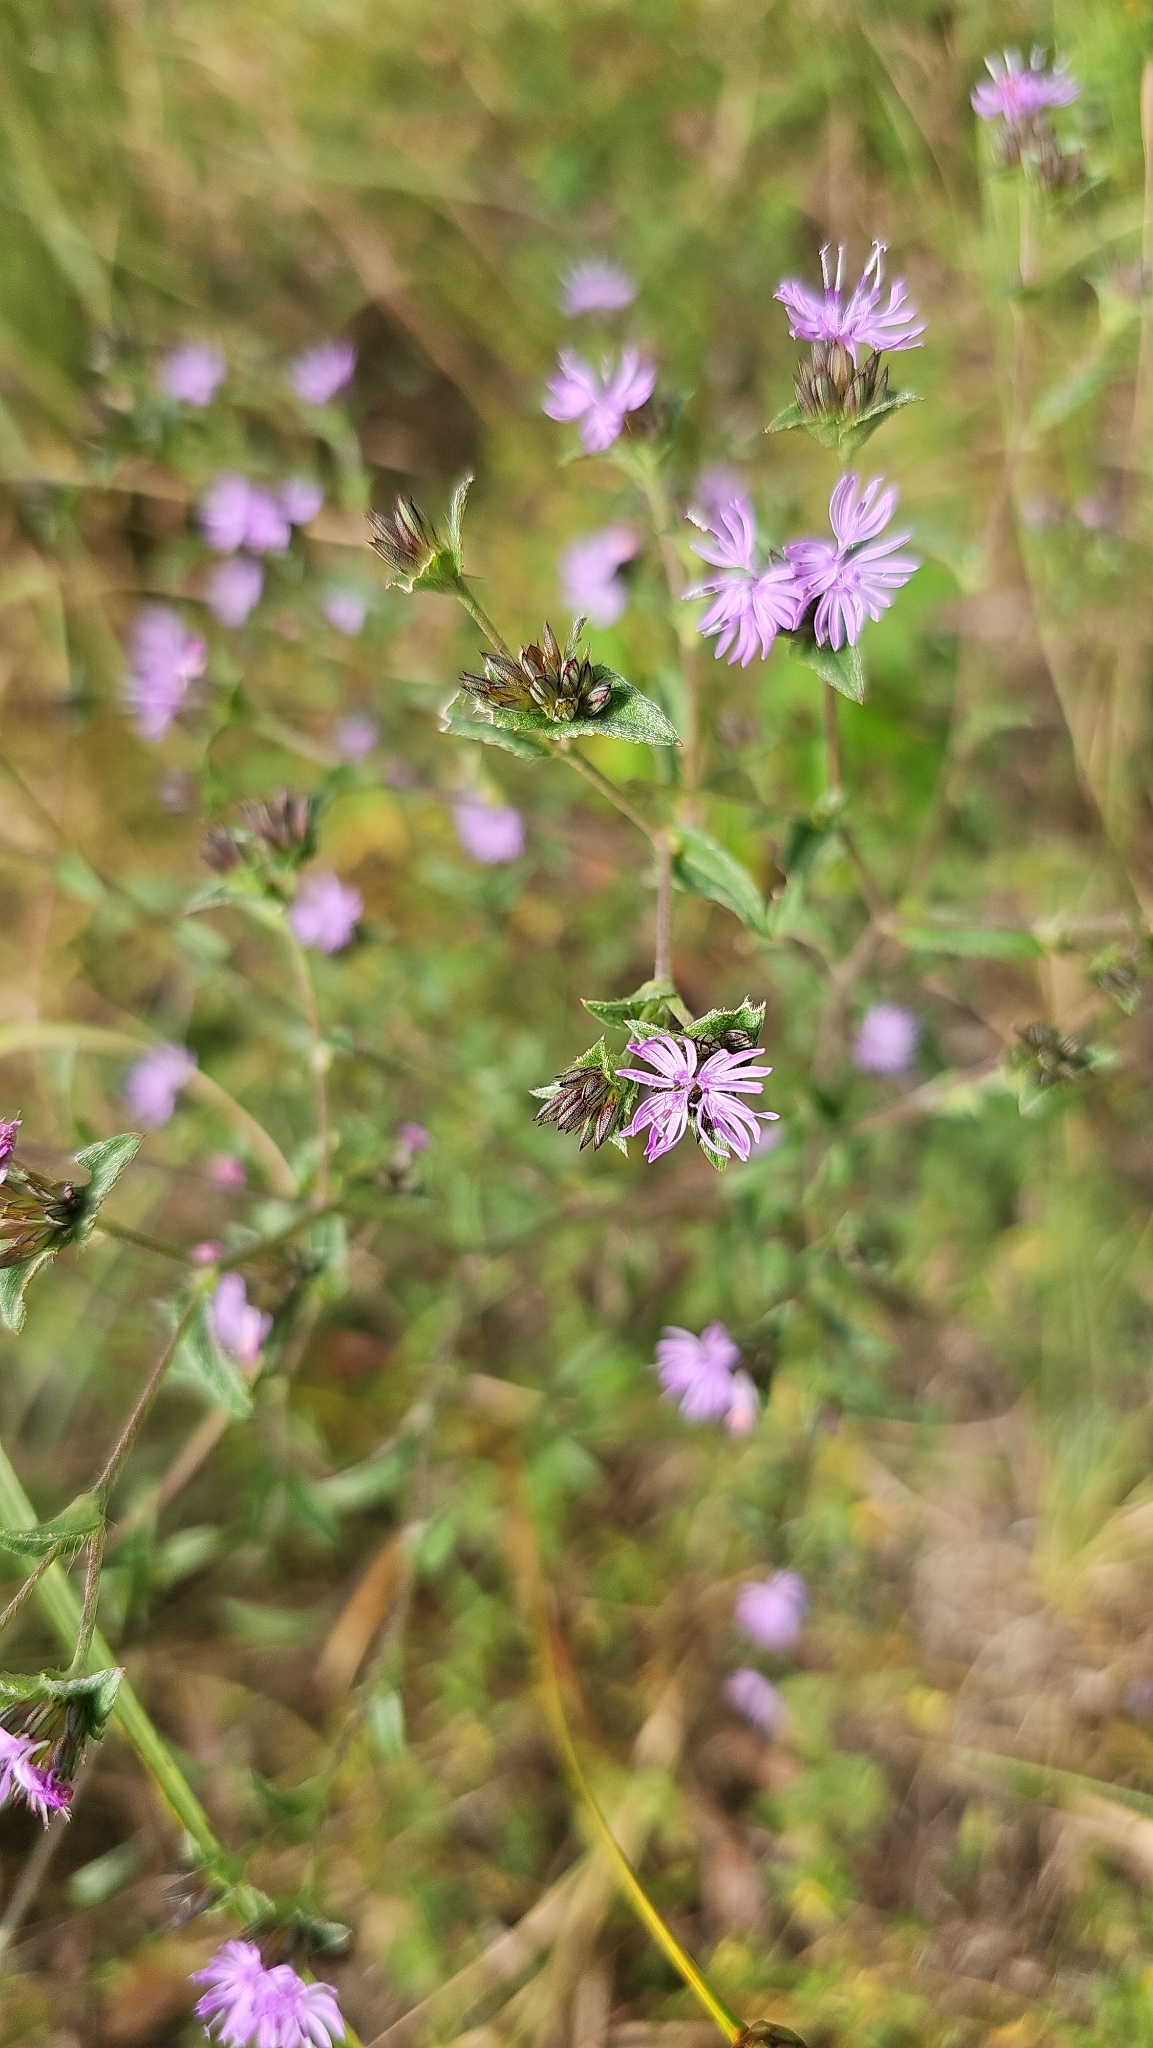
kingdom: Plantae
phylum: Tracheophyta
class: Magnoliopsida
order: Asterales
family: Asteraceae
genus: Elephantopus
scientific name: Elephantopus carolinianus
